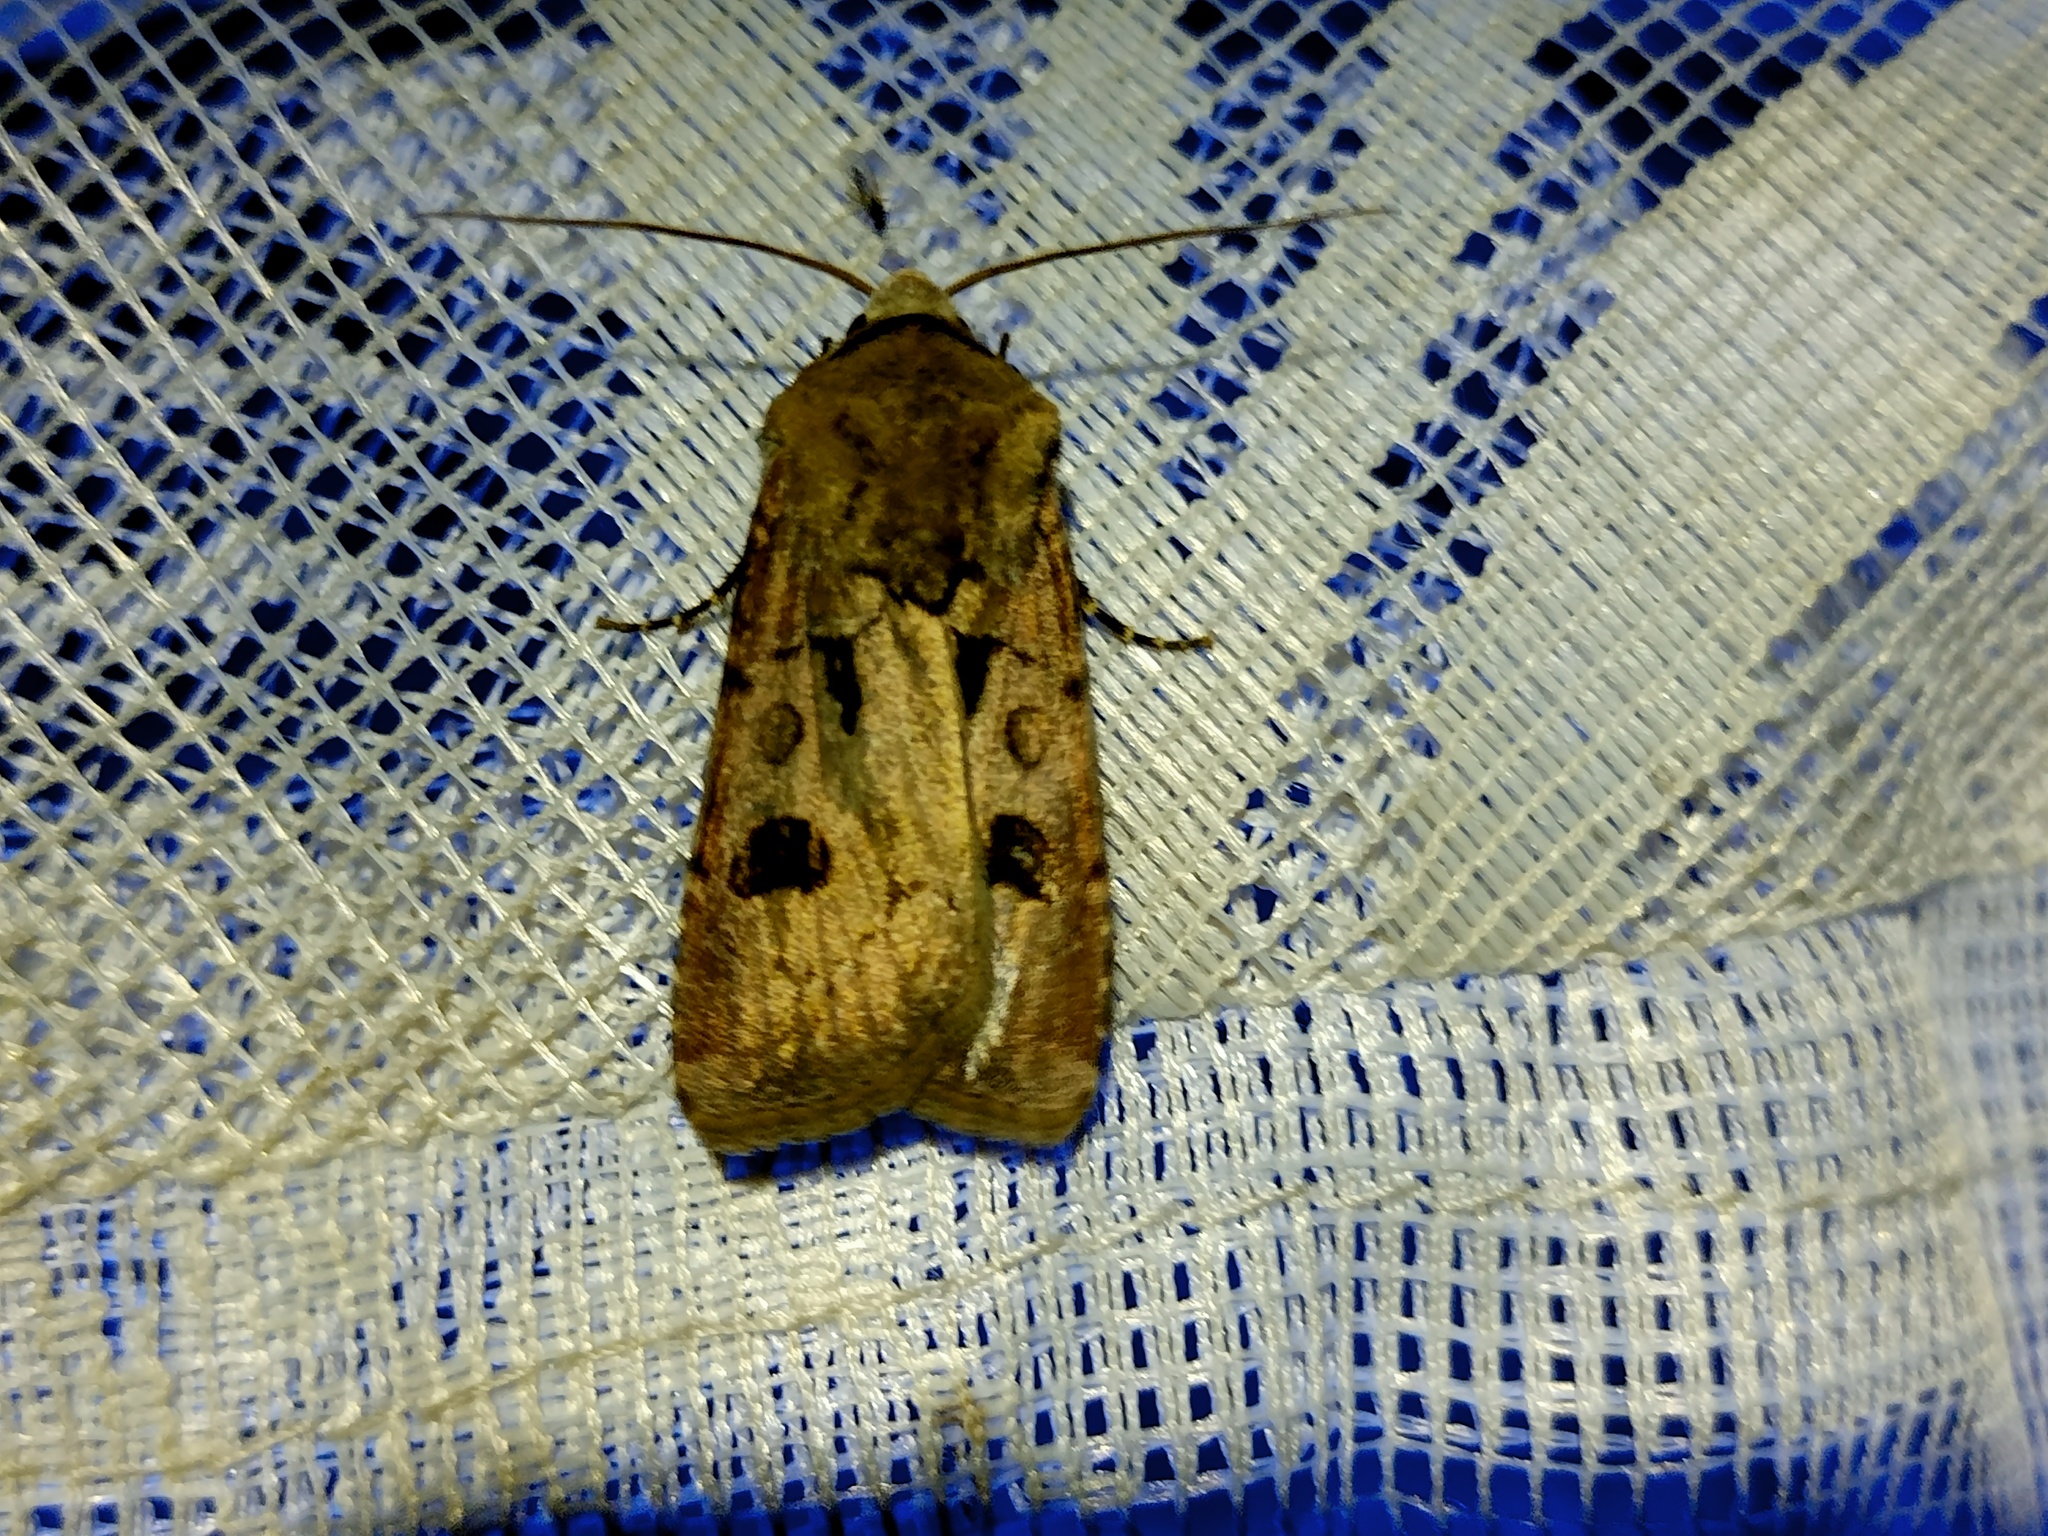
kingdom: Animalia
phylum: Arthropoda
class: Insecta
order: Lepidoptera
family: Noctuidae
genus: Agrotis
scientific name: Agrotis exclamationis
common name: Heart and dart
